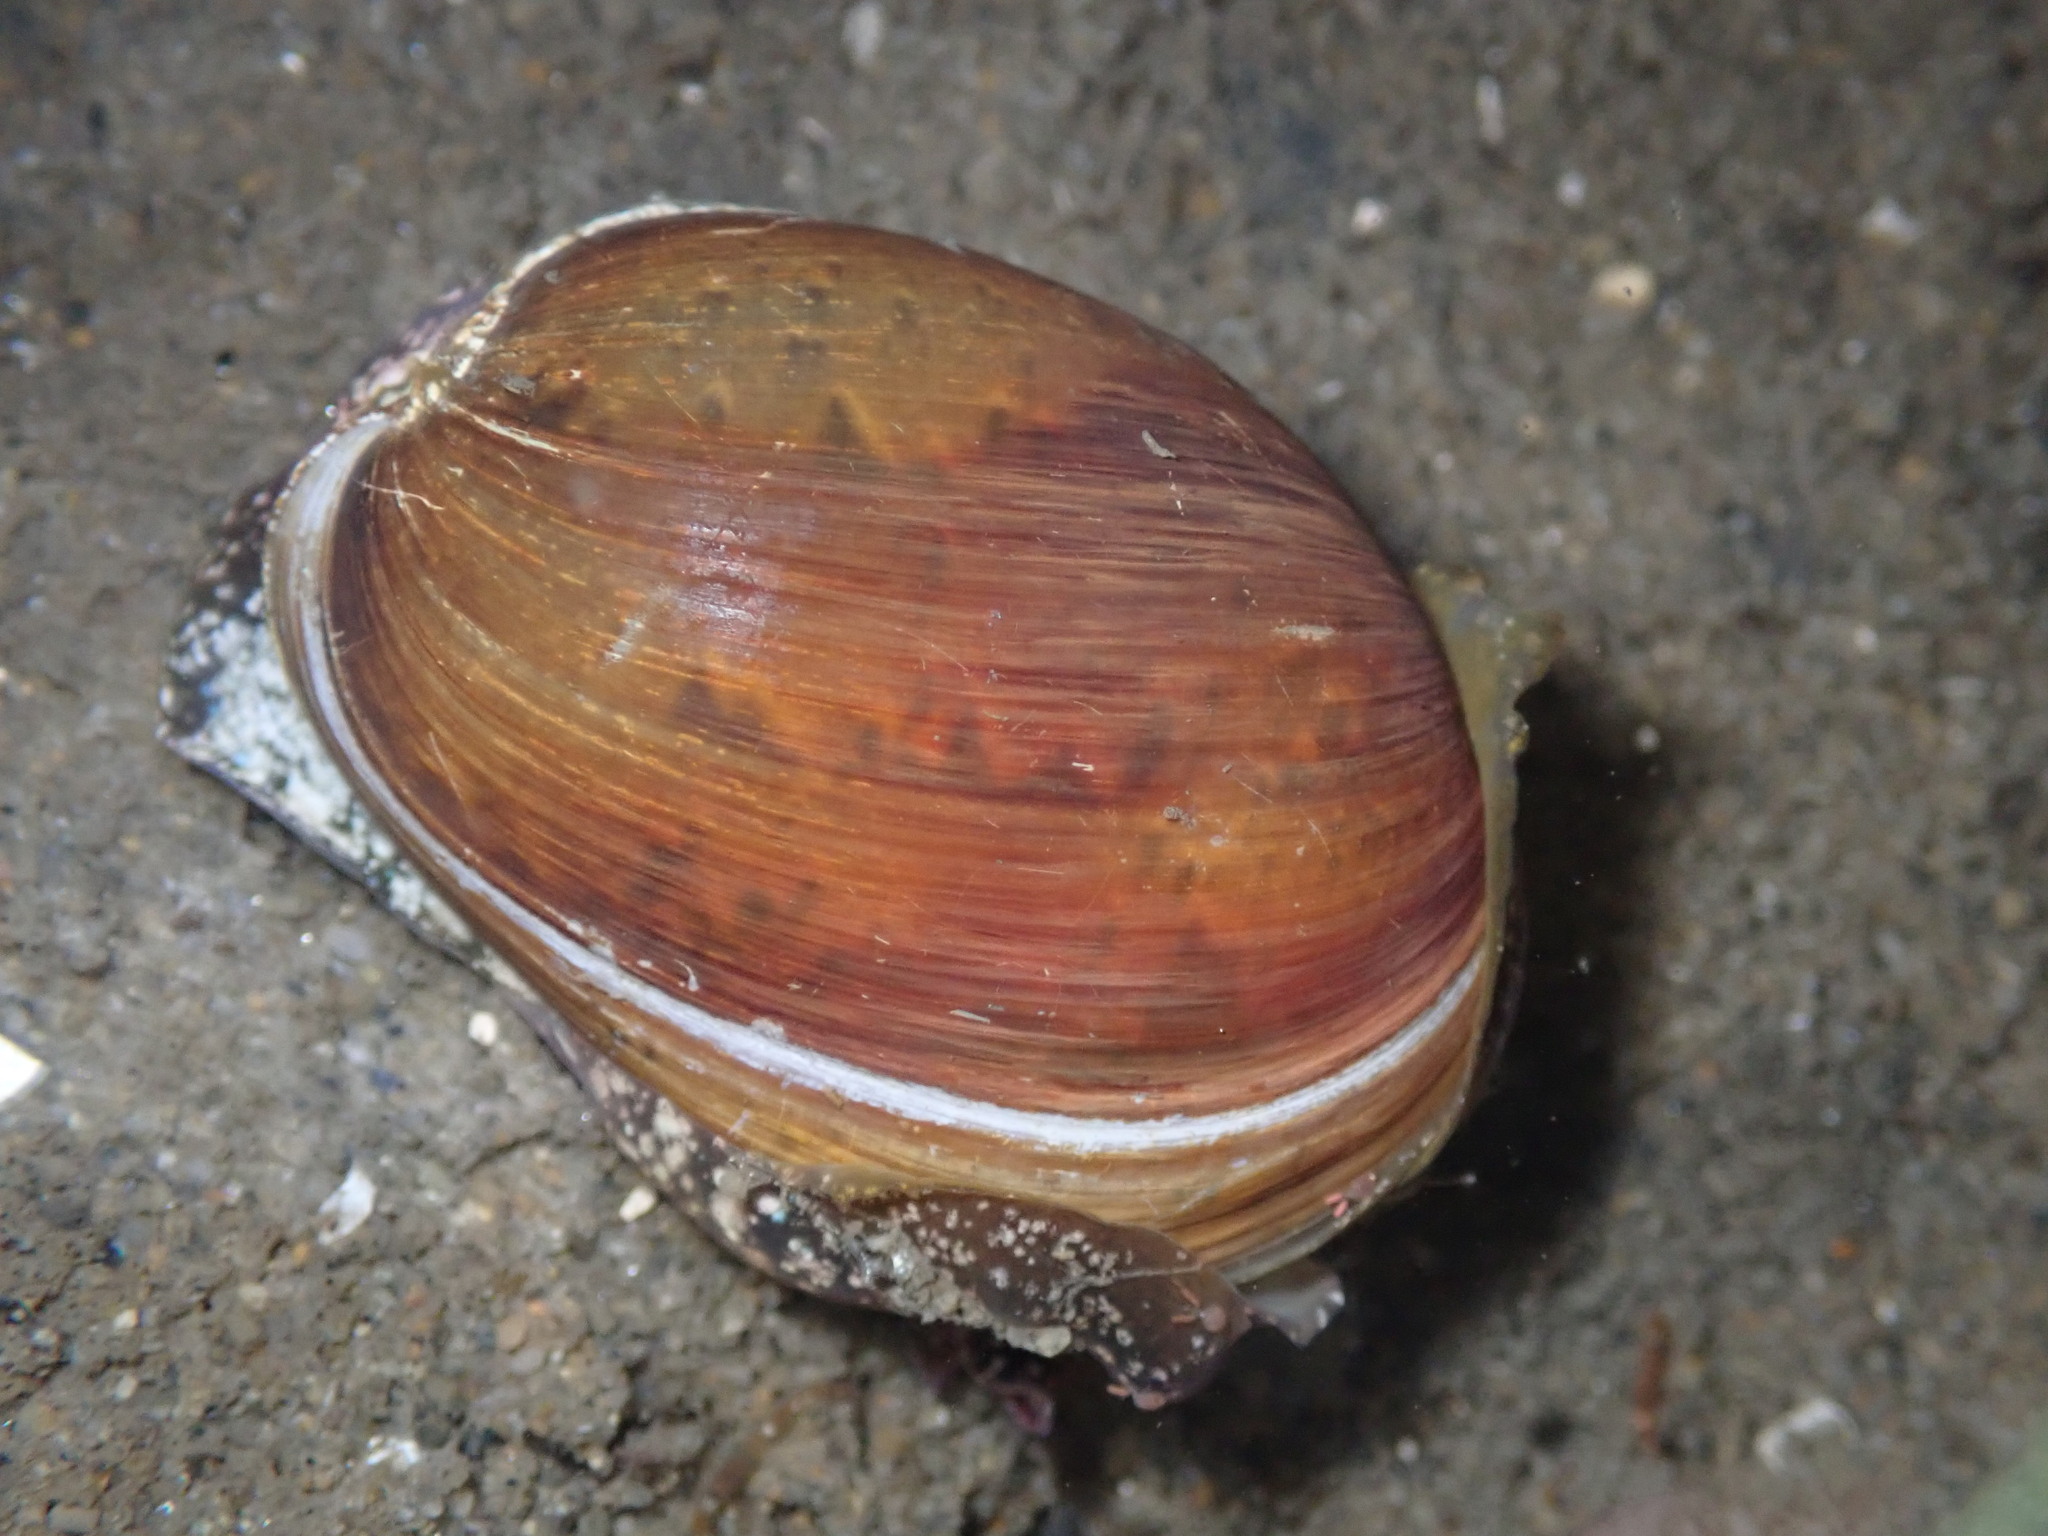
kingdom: Animalia
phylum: Mollusca
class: Gastropoda
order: Cephalaspidea
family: Bullidae
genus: Bulla
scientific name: Bulla gouldiana
